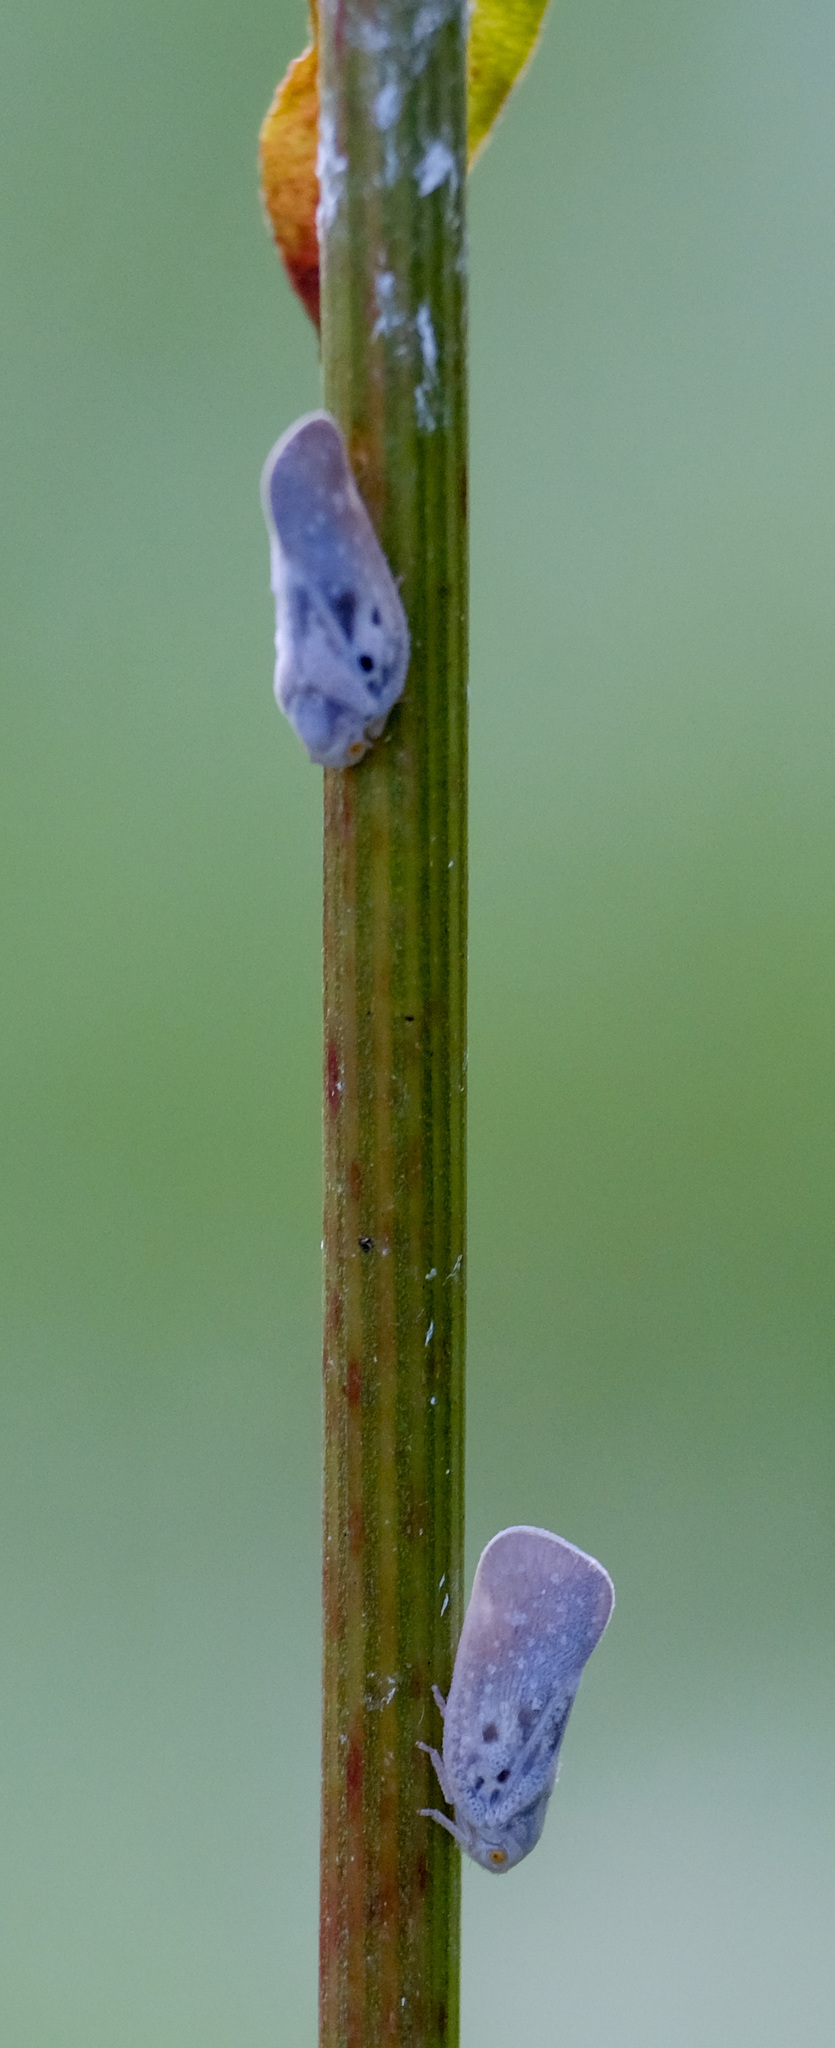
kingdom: Animalia
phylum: Arthropoda
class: Insecta
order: Hemiptera
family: Flatidae
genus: Metcalfa
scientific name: Metcalfa pruinosa
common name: Citrus flatid planthopper
